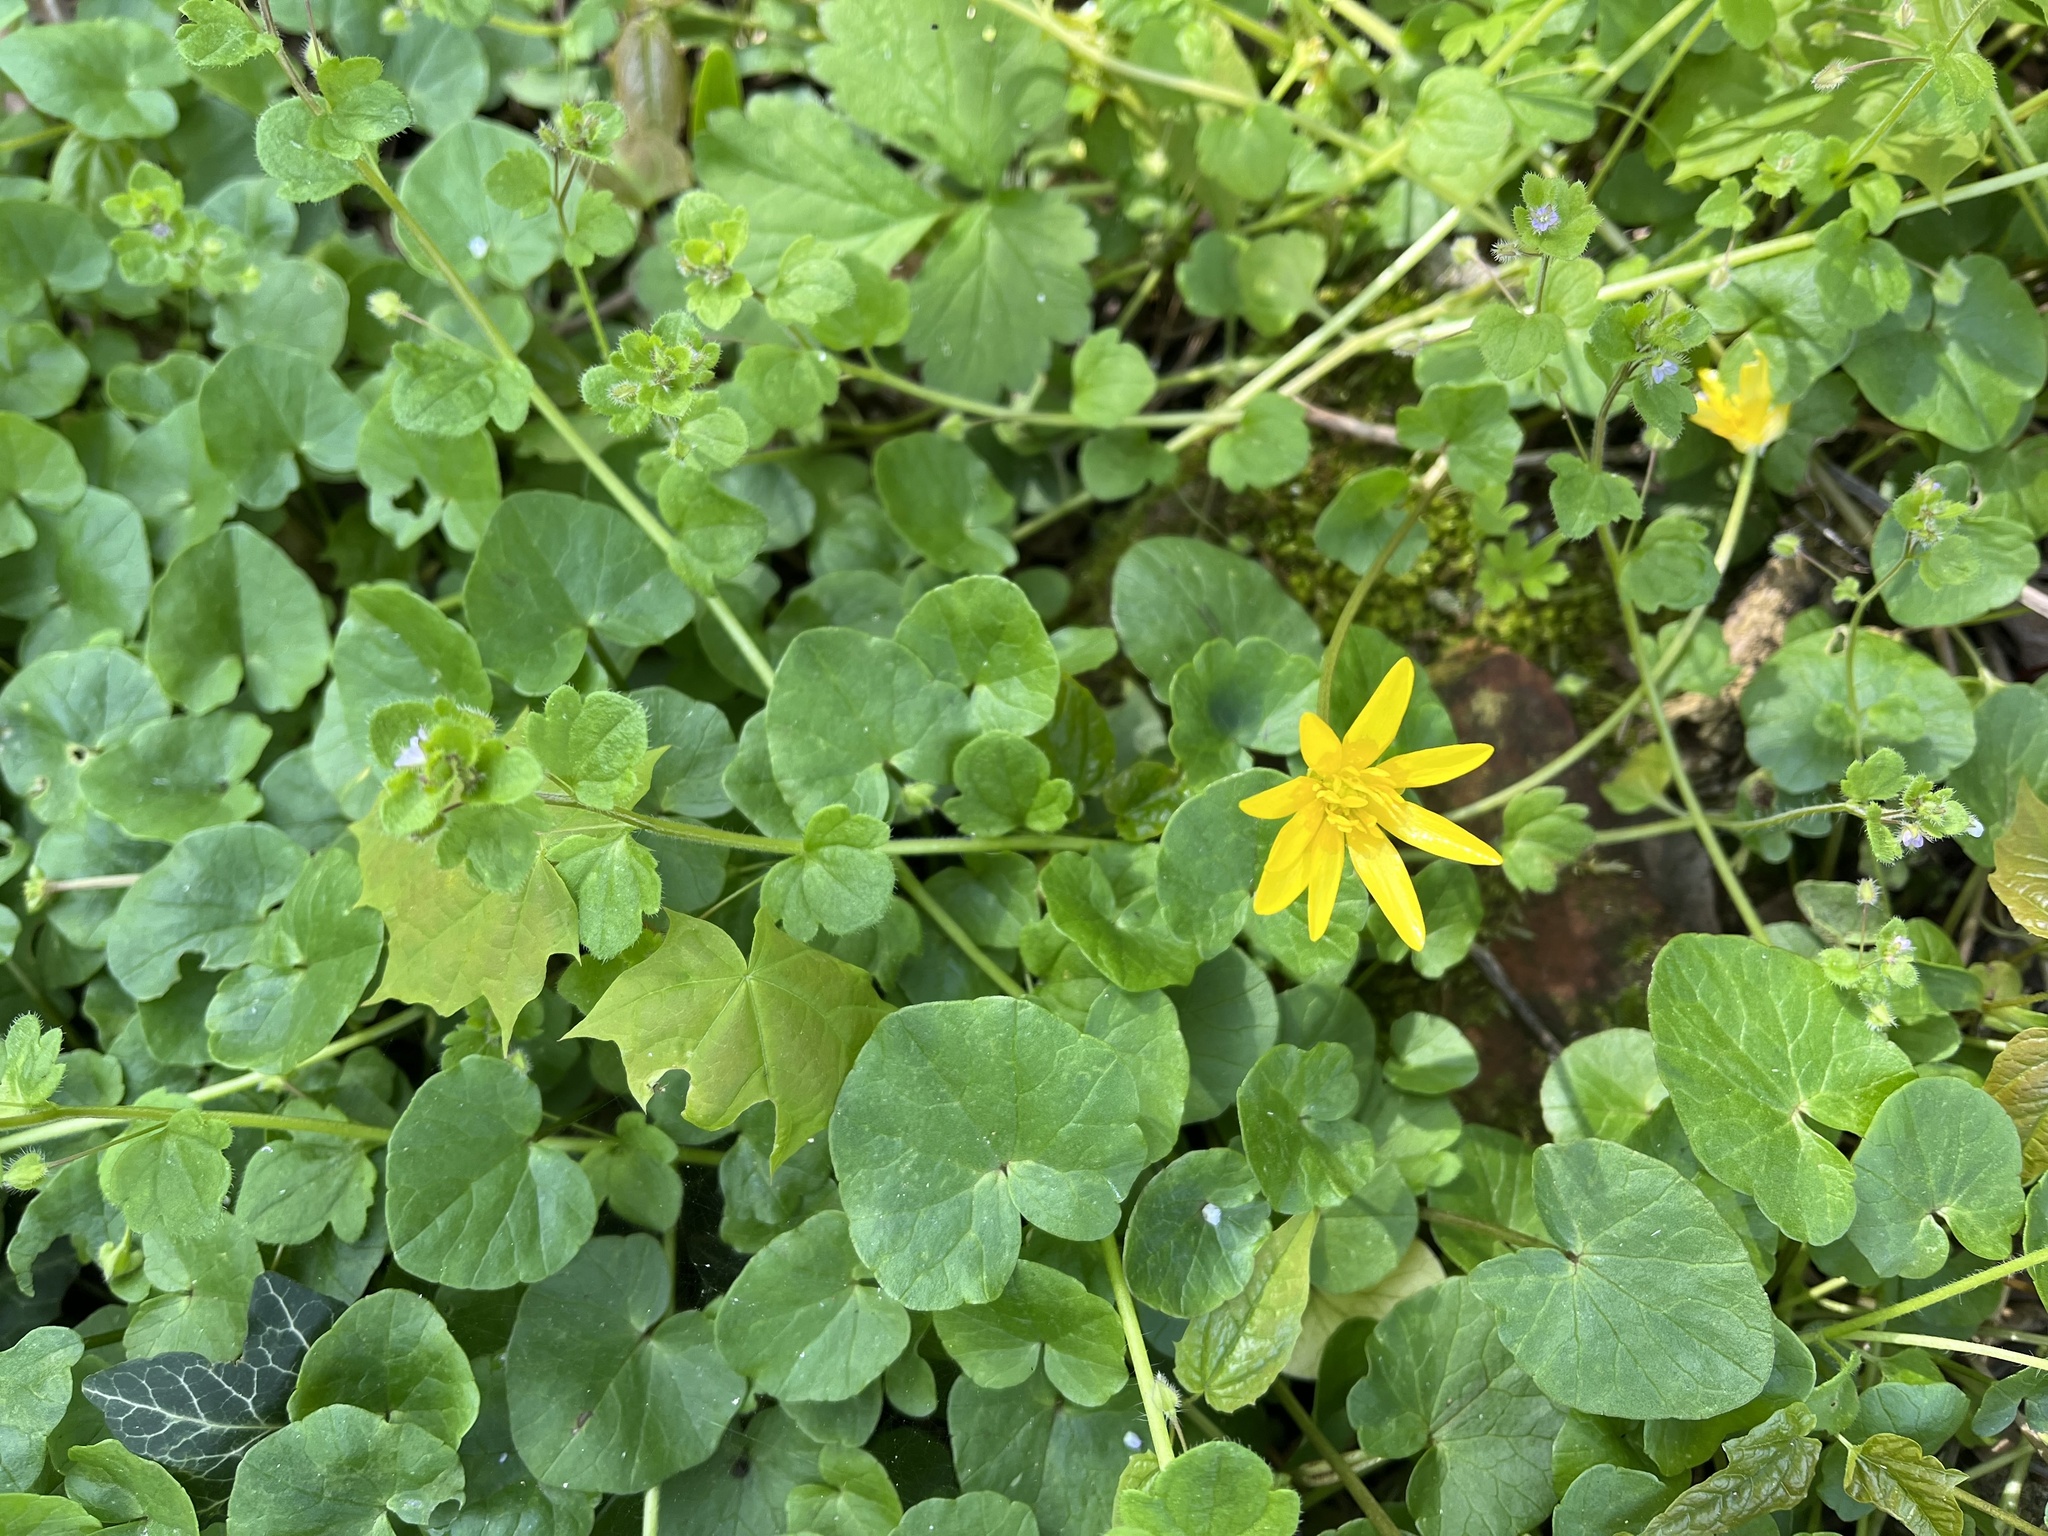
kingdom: Plantae
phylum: Tracheophyta
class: Magnoliopsida
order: Ranunculales
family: Ranunculaceae
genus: Ficaria
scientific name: Ficaria verna
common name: Lesser celandine
